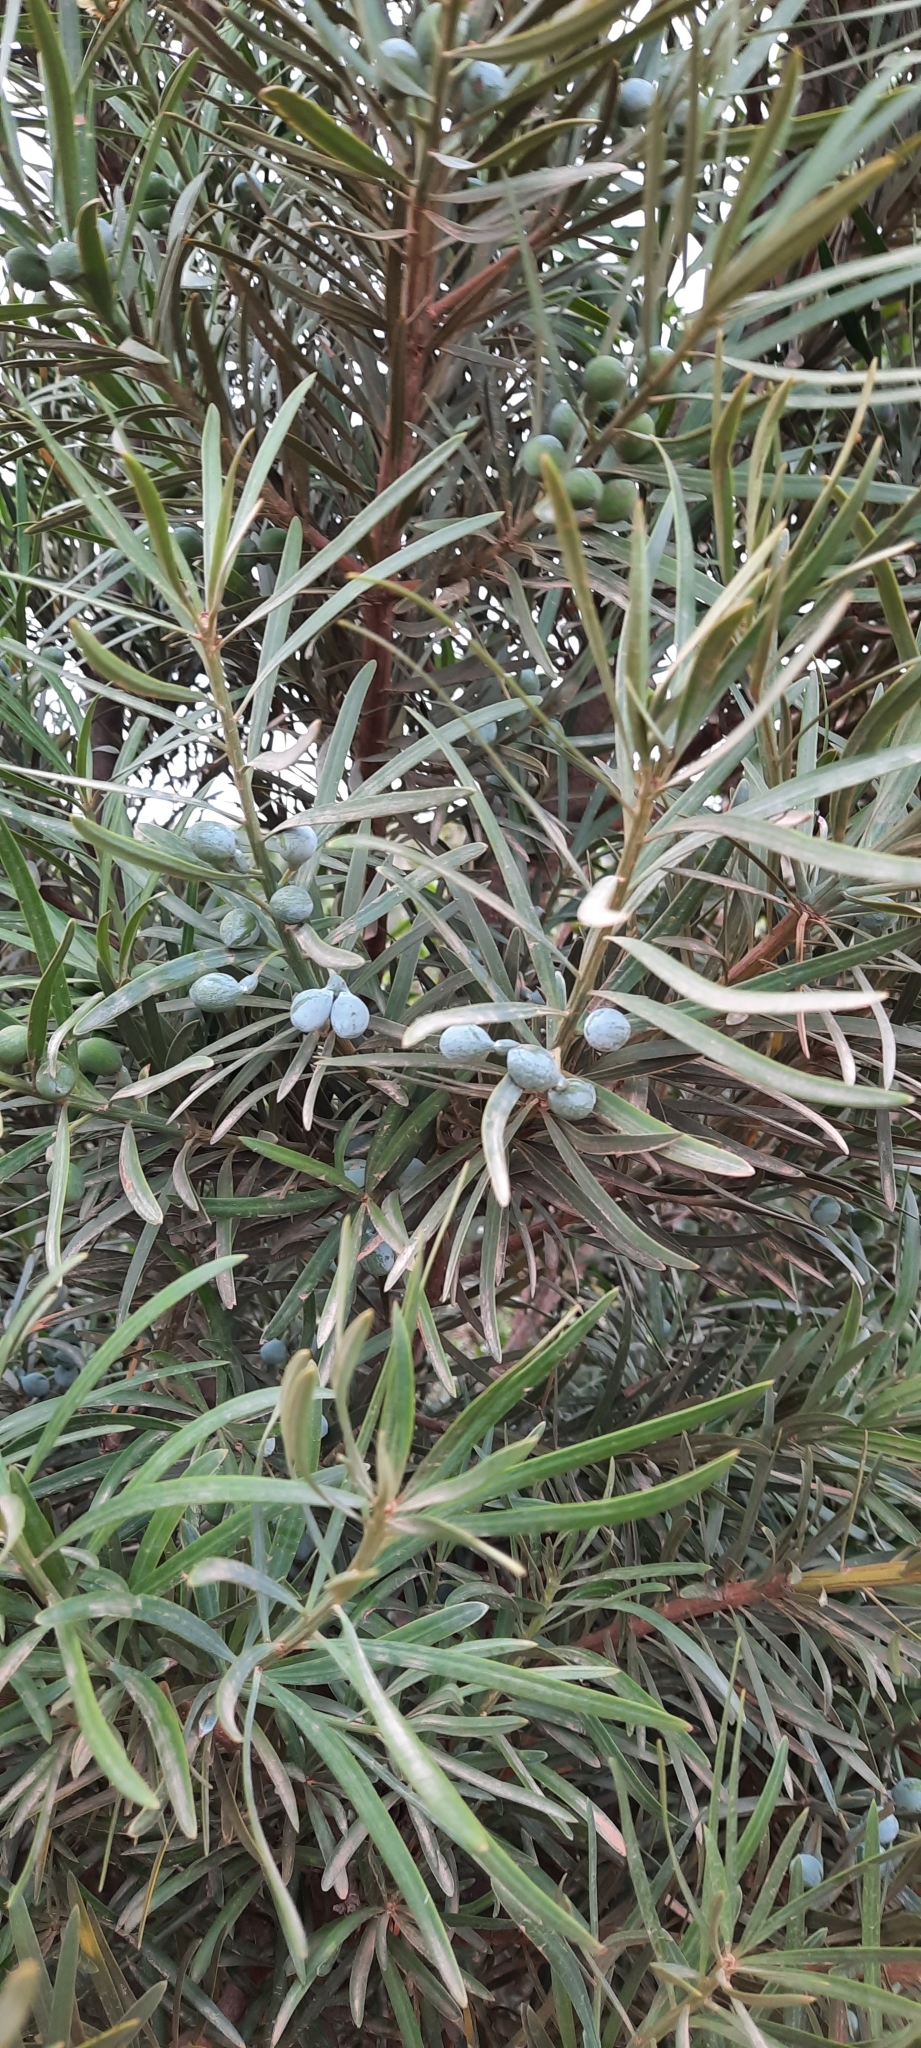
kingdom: Plantae
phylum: Tracheophyta
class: Pinopsida
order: Pinales
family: Podocarpaceae
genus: Podocarpus
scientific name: Podocarpus elongatus
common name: Breede river yellowwood
